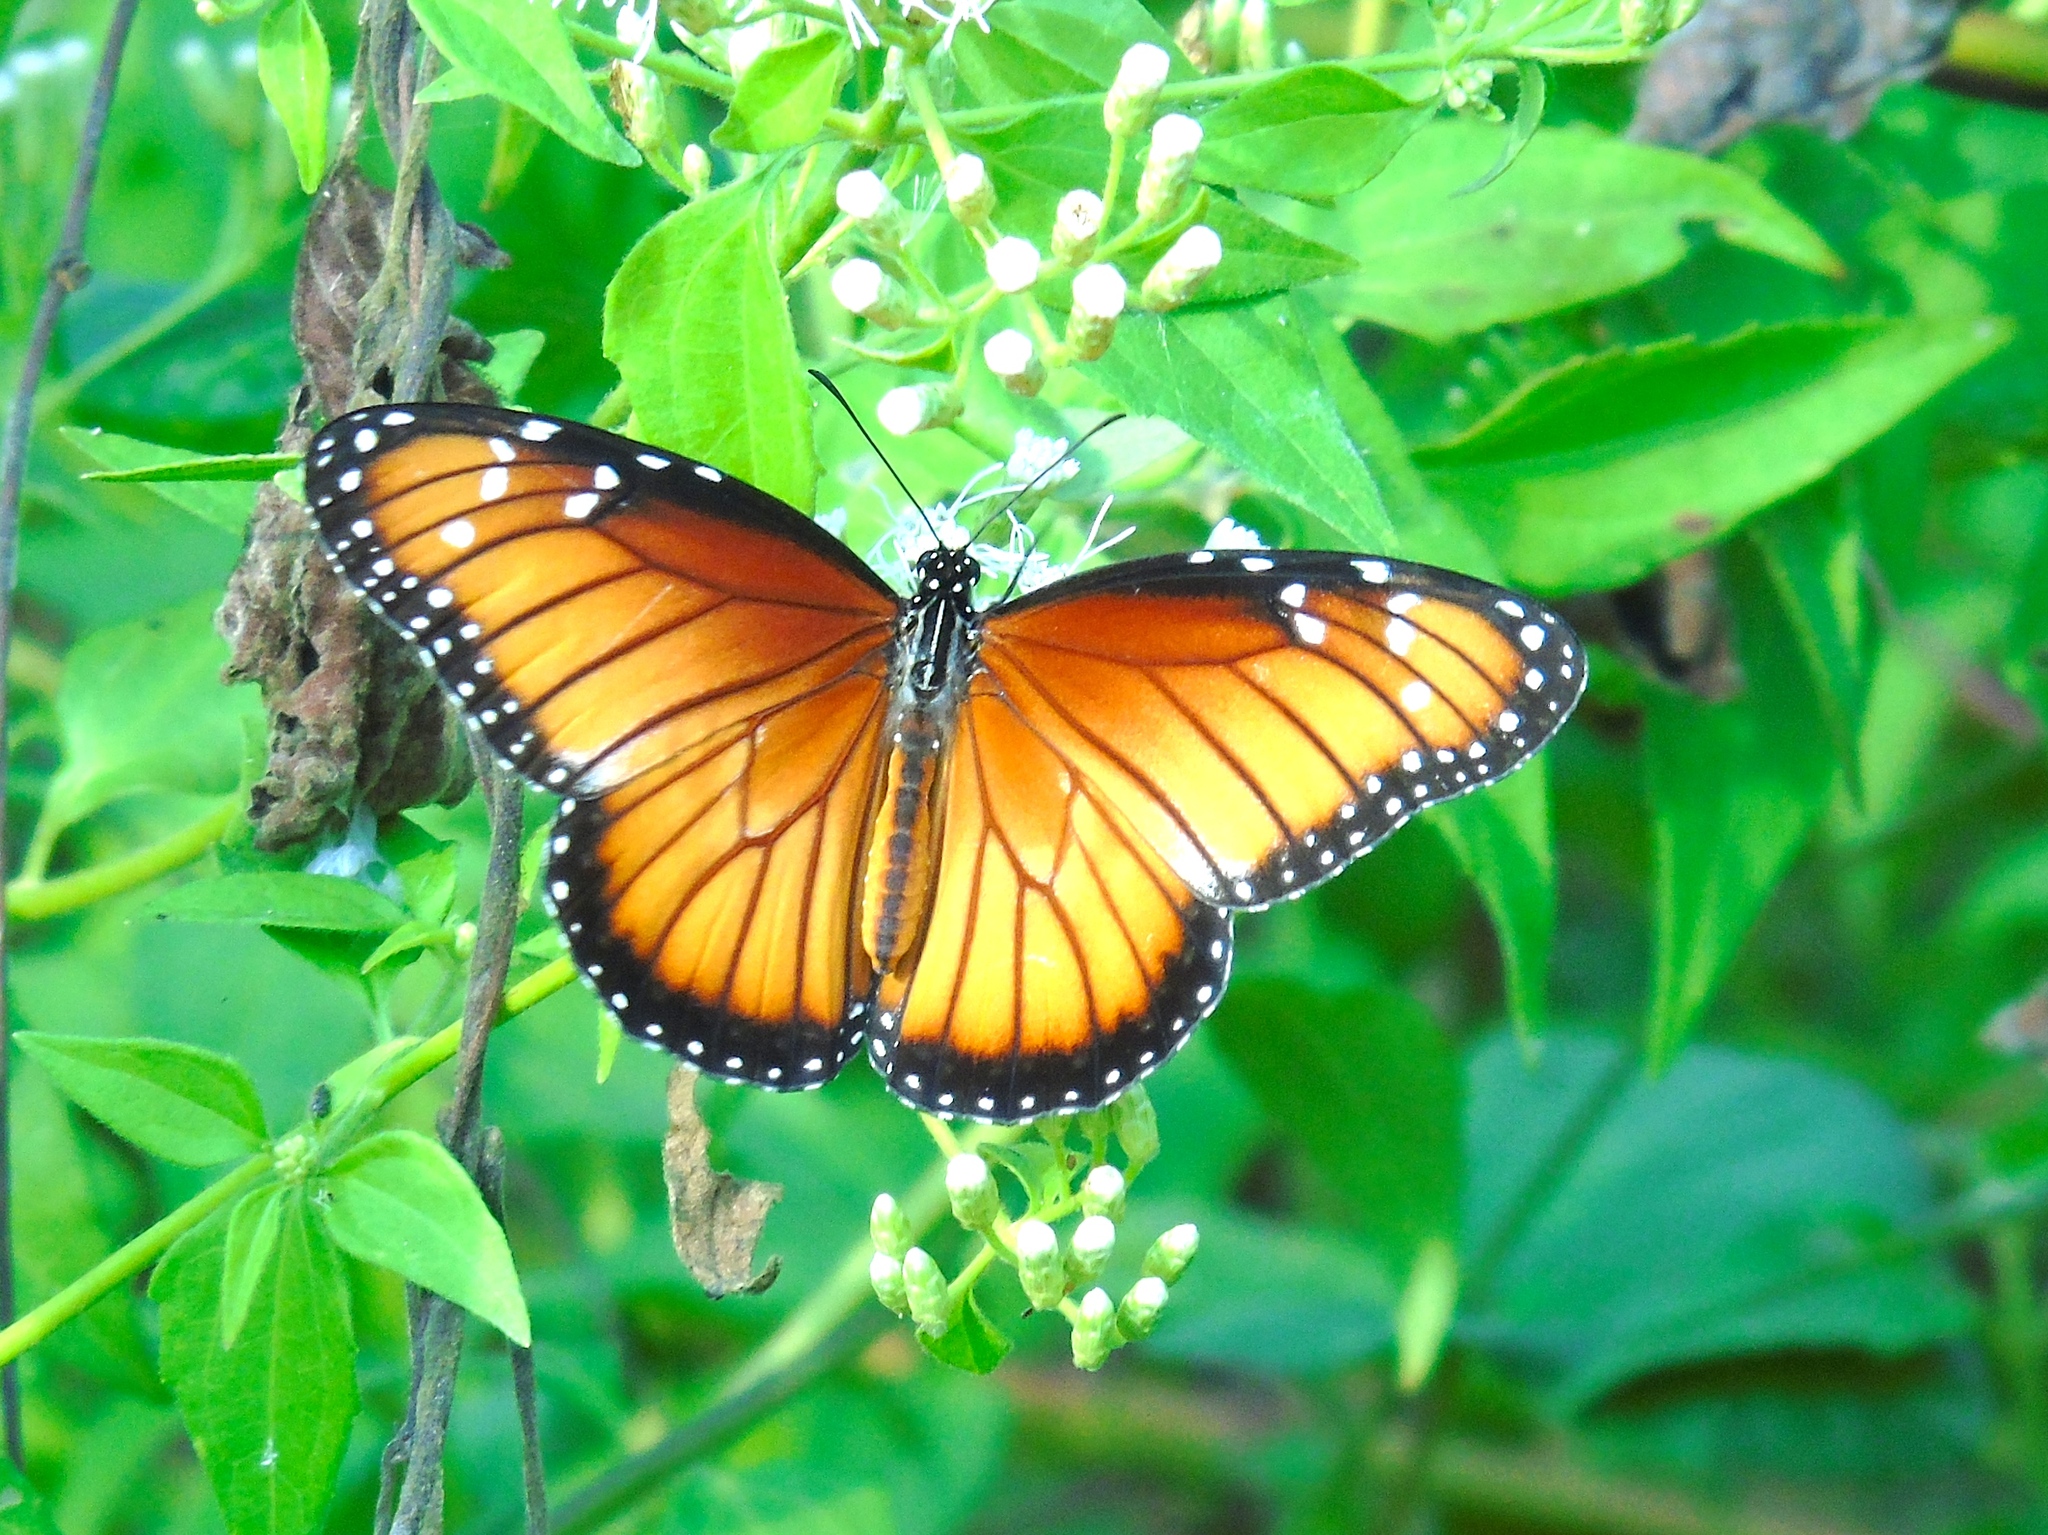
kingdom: Animalia
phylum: Arthropoda
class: Insecta
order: Lepidoptera
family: Nymphalidae
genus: Danaus
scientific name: Danaus eresimus
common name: Soldier
